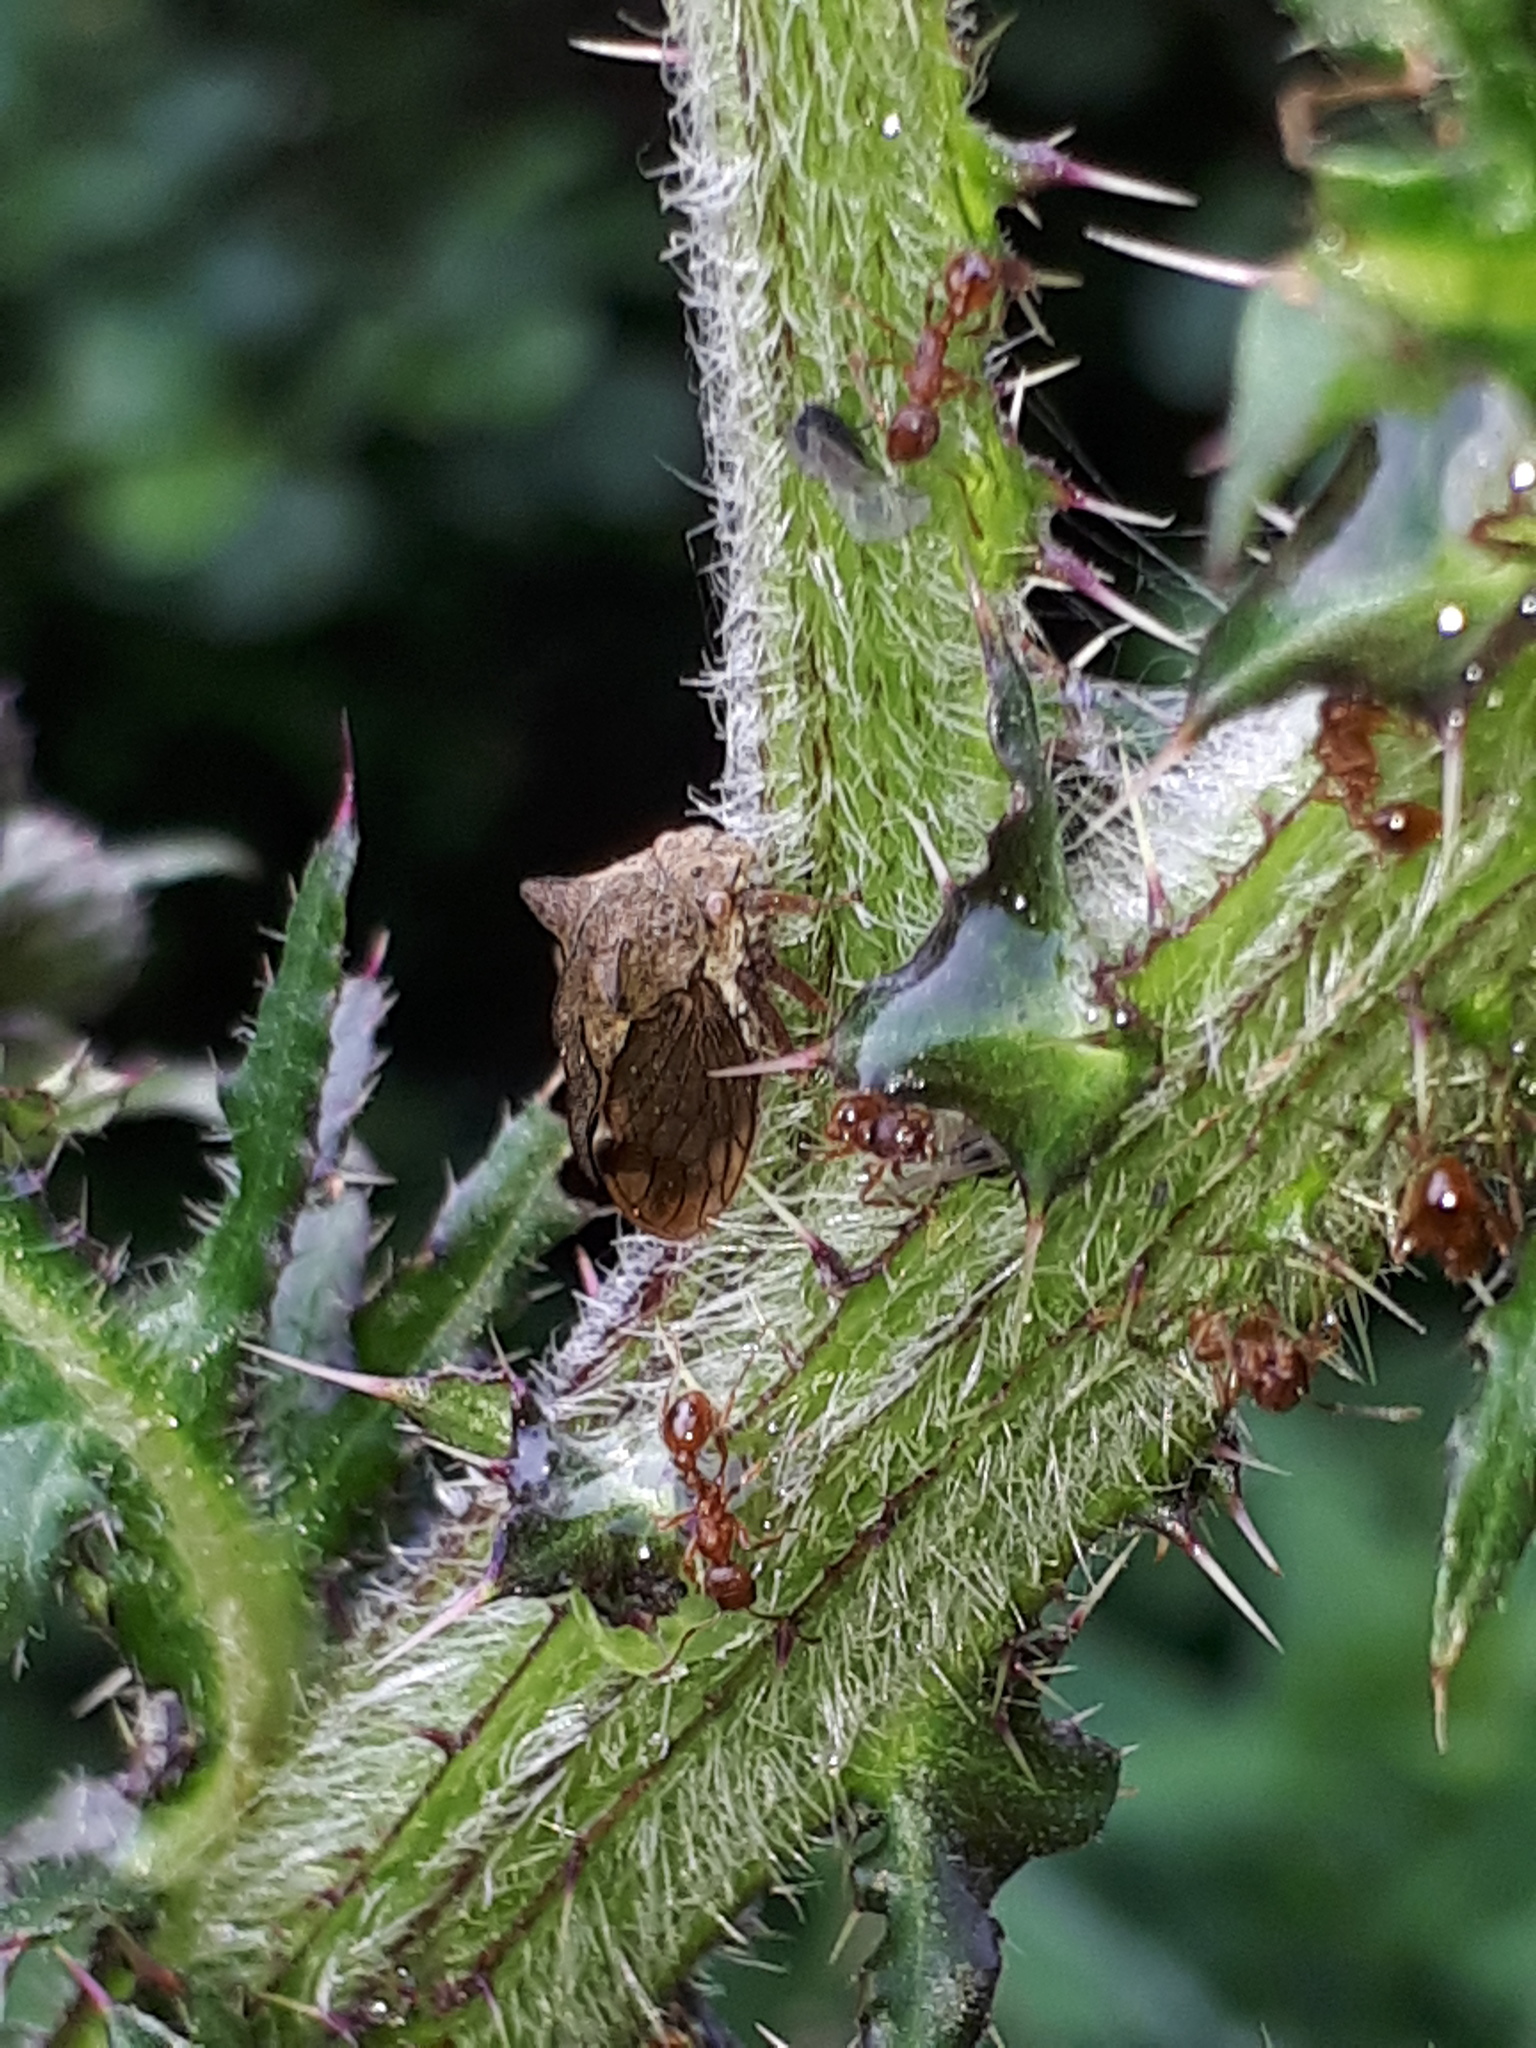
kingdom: Animalia
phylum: Arthropoda
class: Insecta
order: Hemiptera
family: Membracidae
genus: Centrotus
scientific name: Centrotus cornuta
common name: Treehopper
